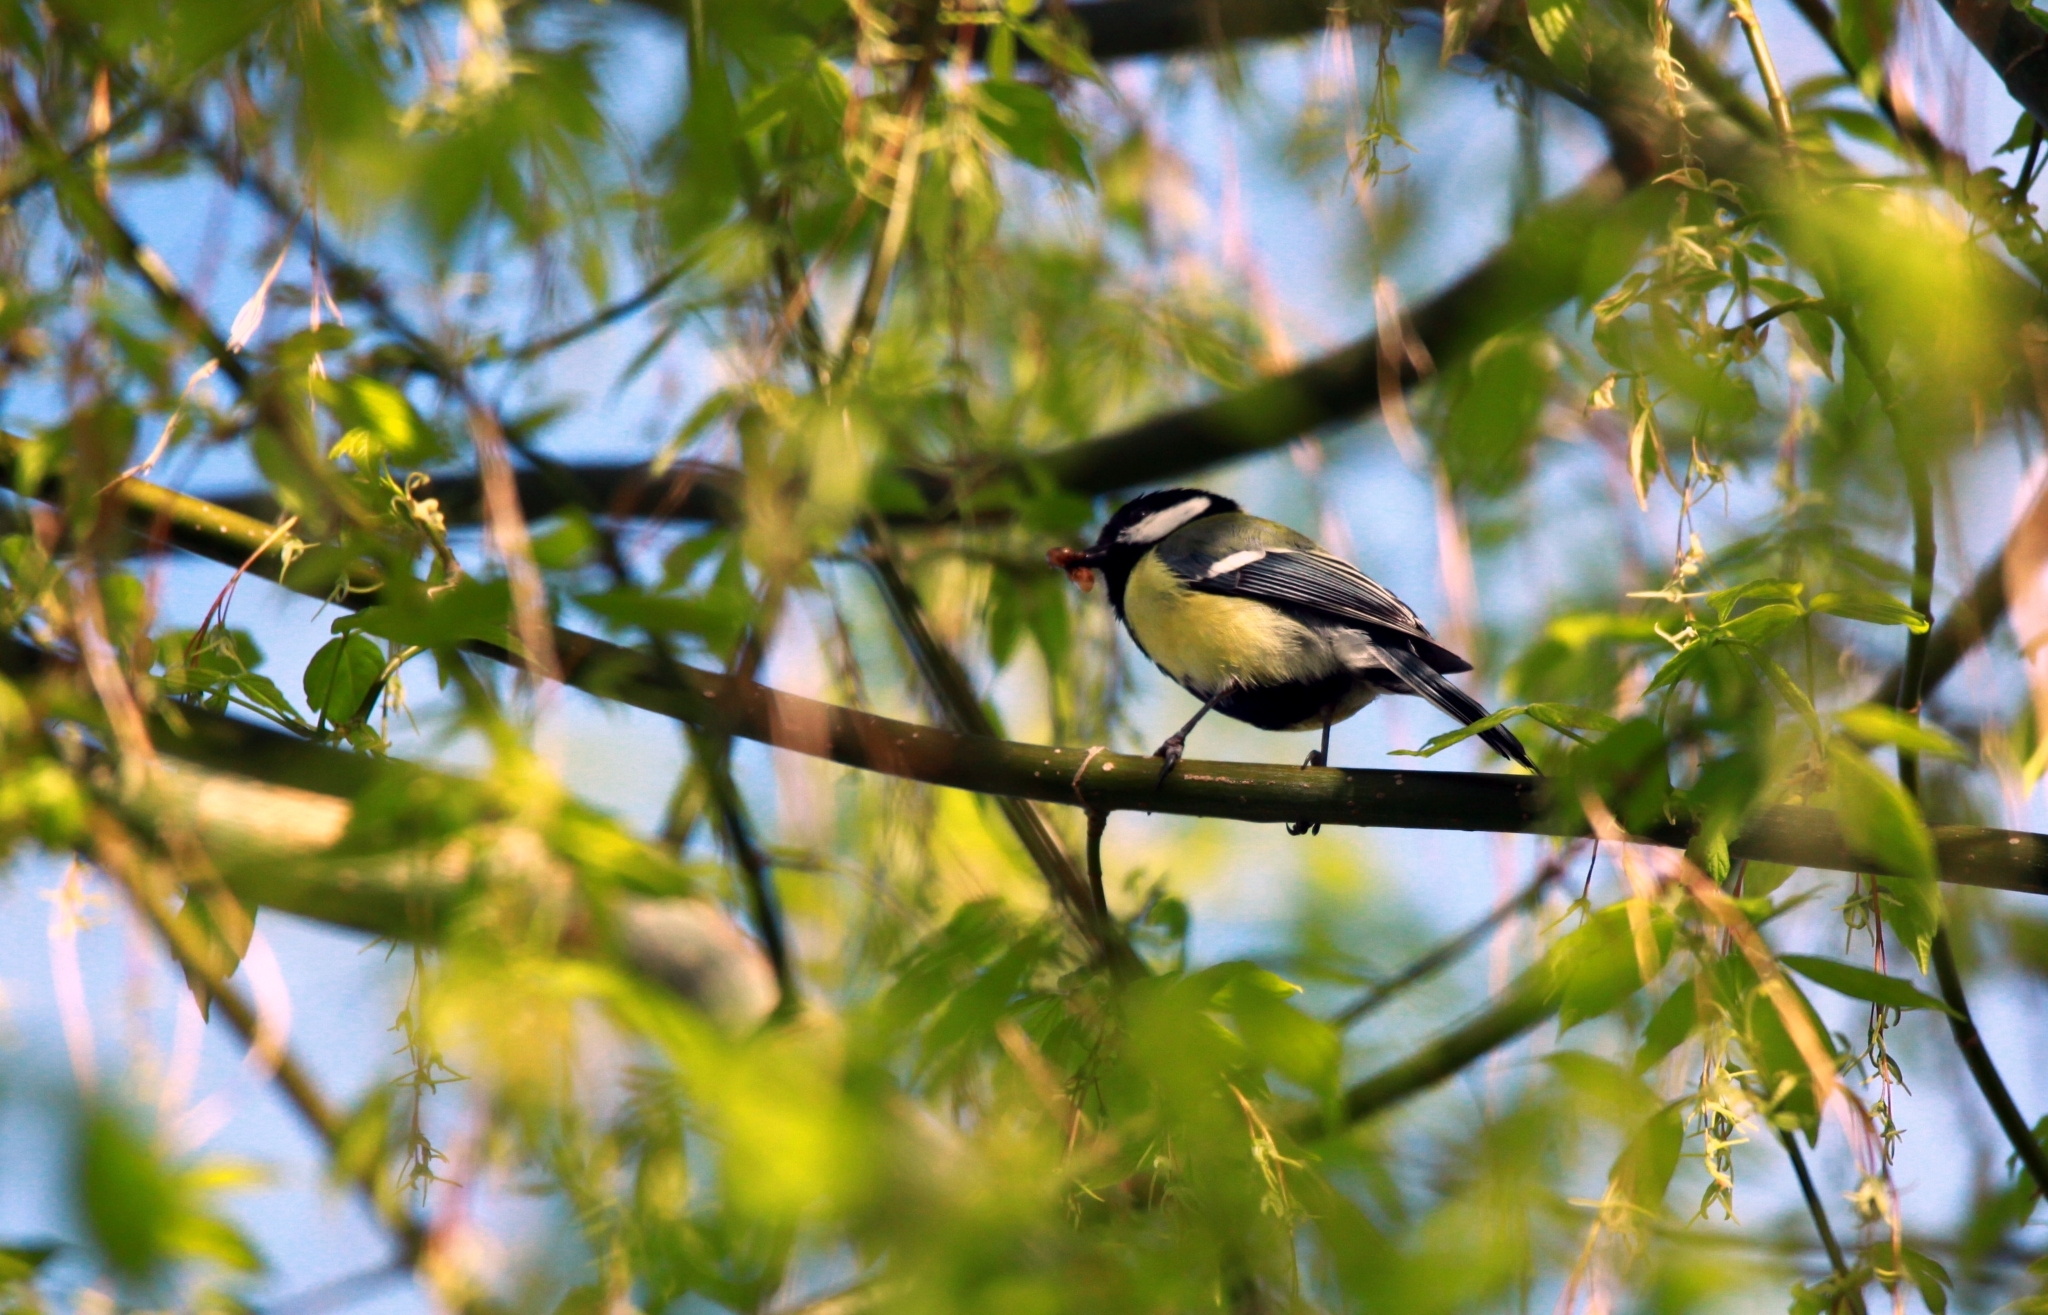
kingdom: Animalia
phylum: Chordata
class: Aves
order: Passeriformes
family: Paridae
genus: Parus
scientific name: Parus major
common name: Great tit
